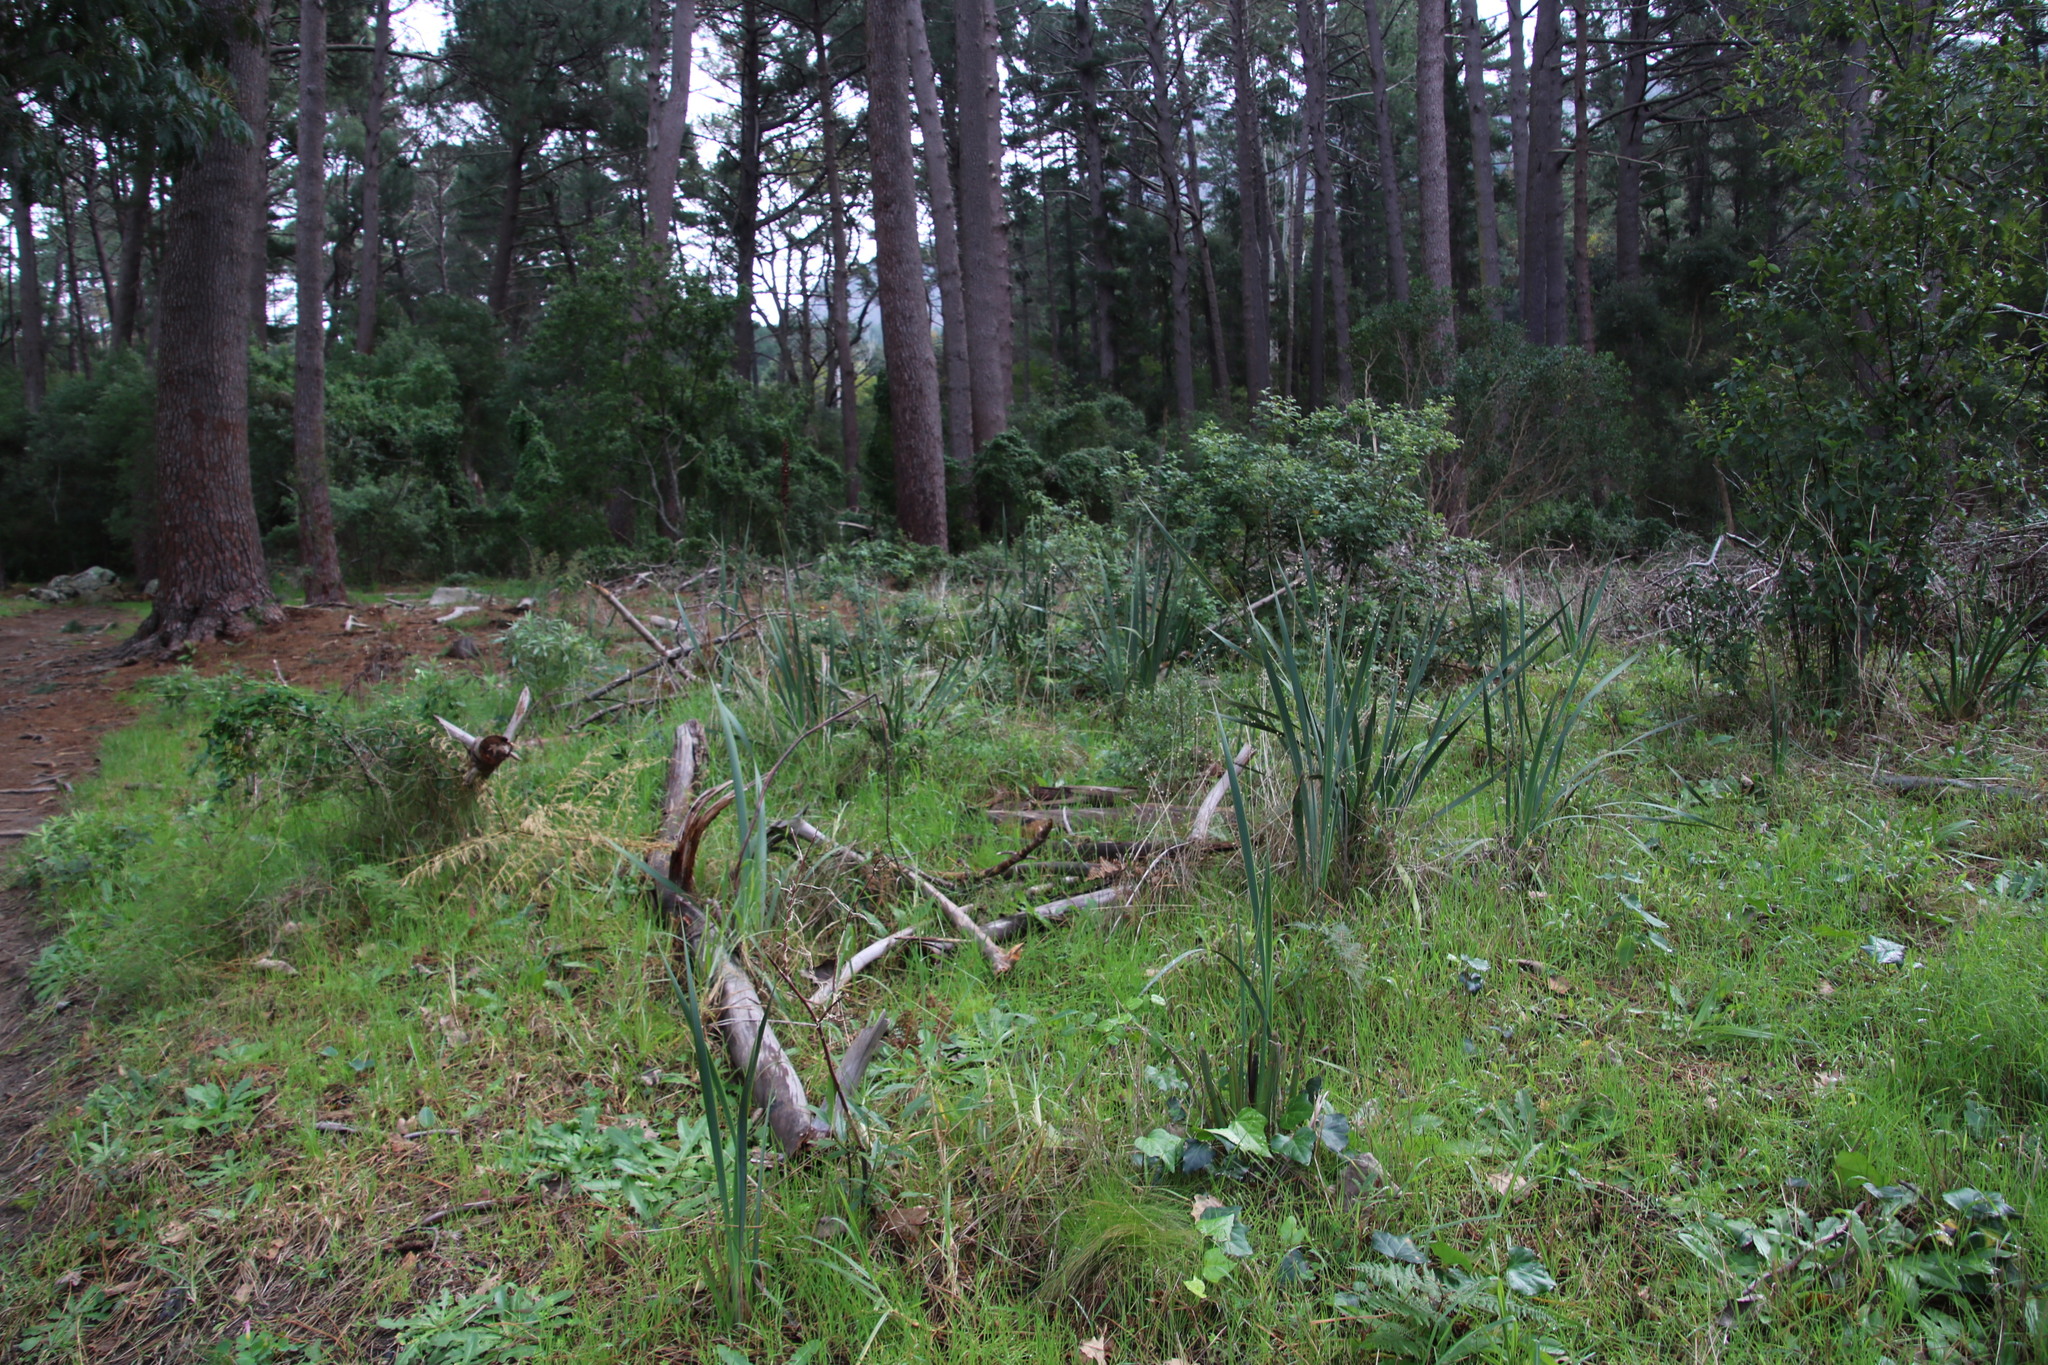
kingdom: Plantae
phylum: Tracheophyta
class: Liliopsida
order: Asparagales
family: Iridaceae
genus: Aristea
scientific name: Aristea bakeri
